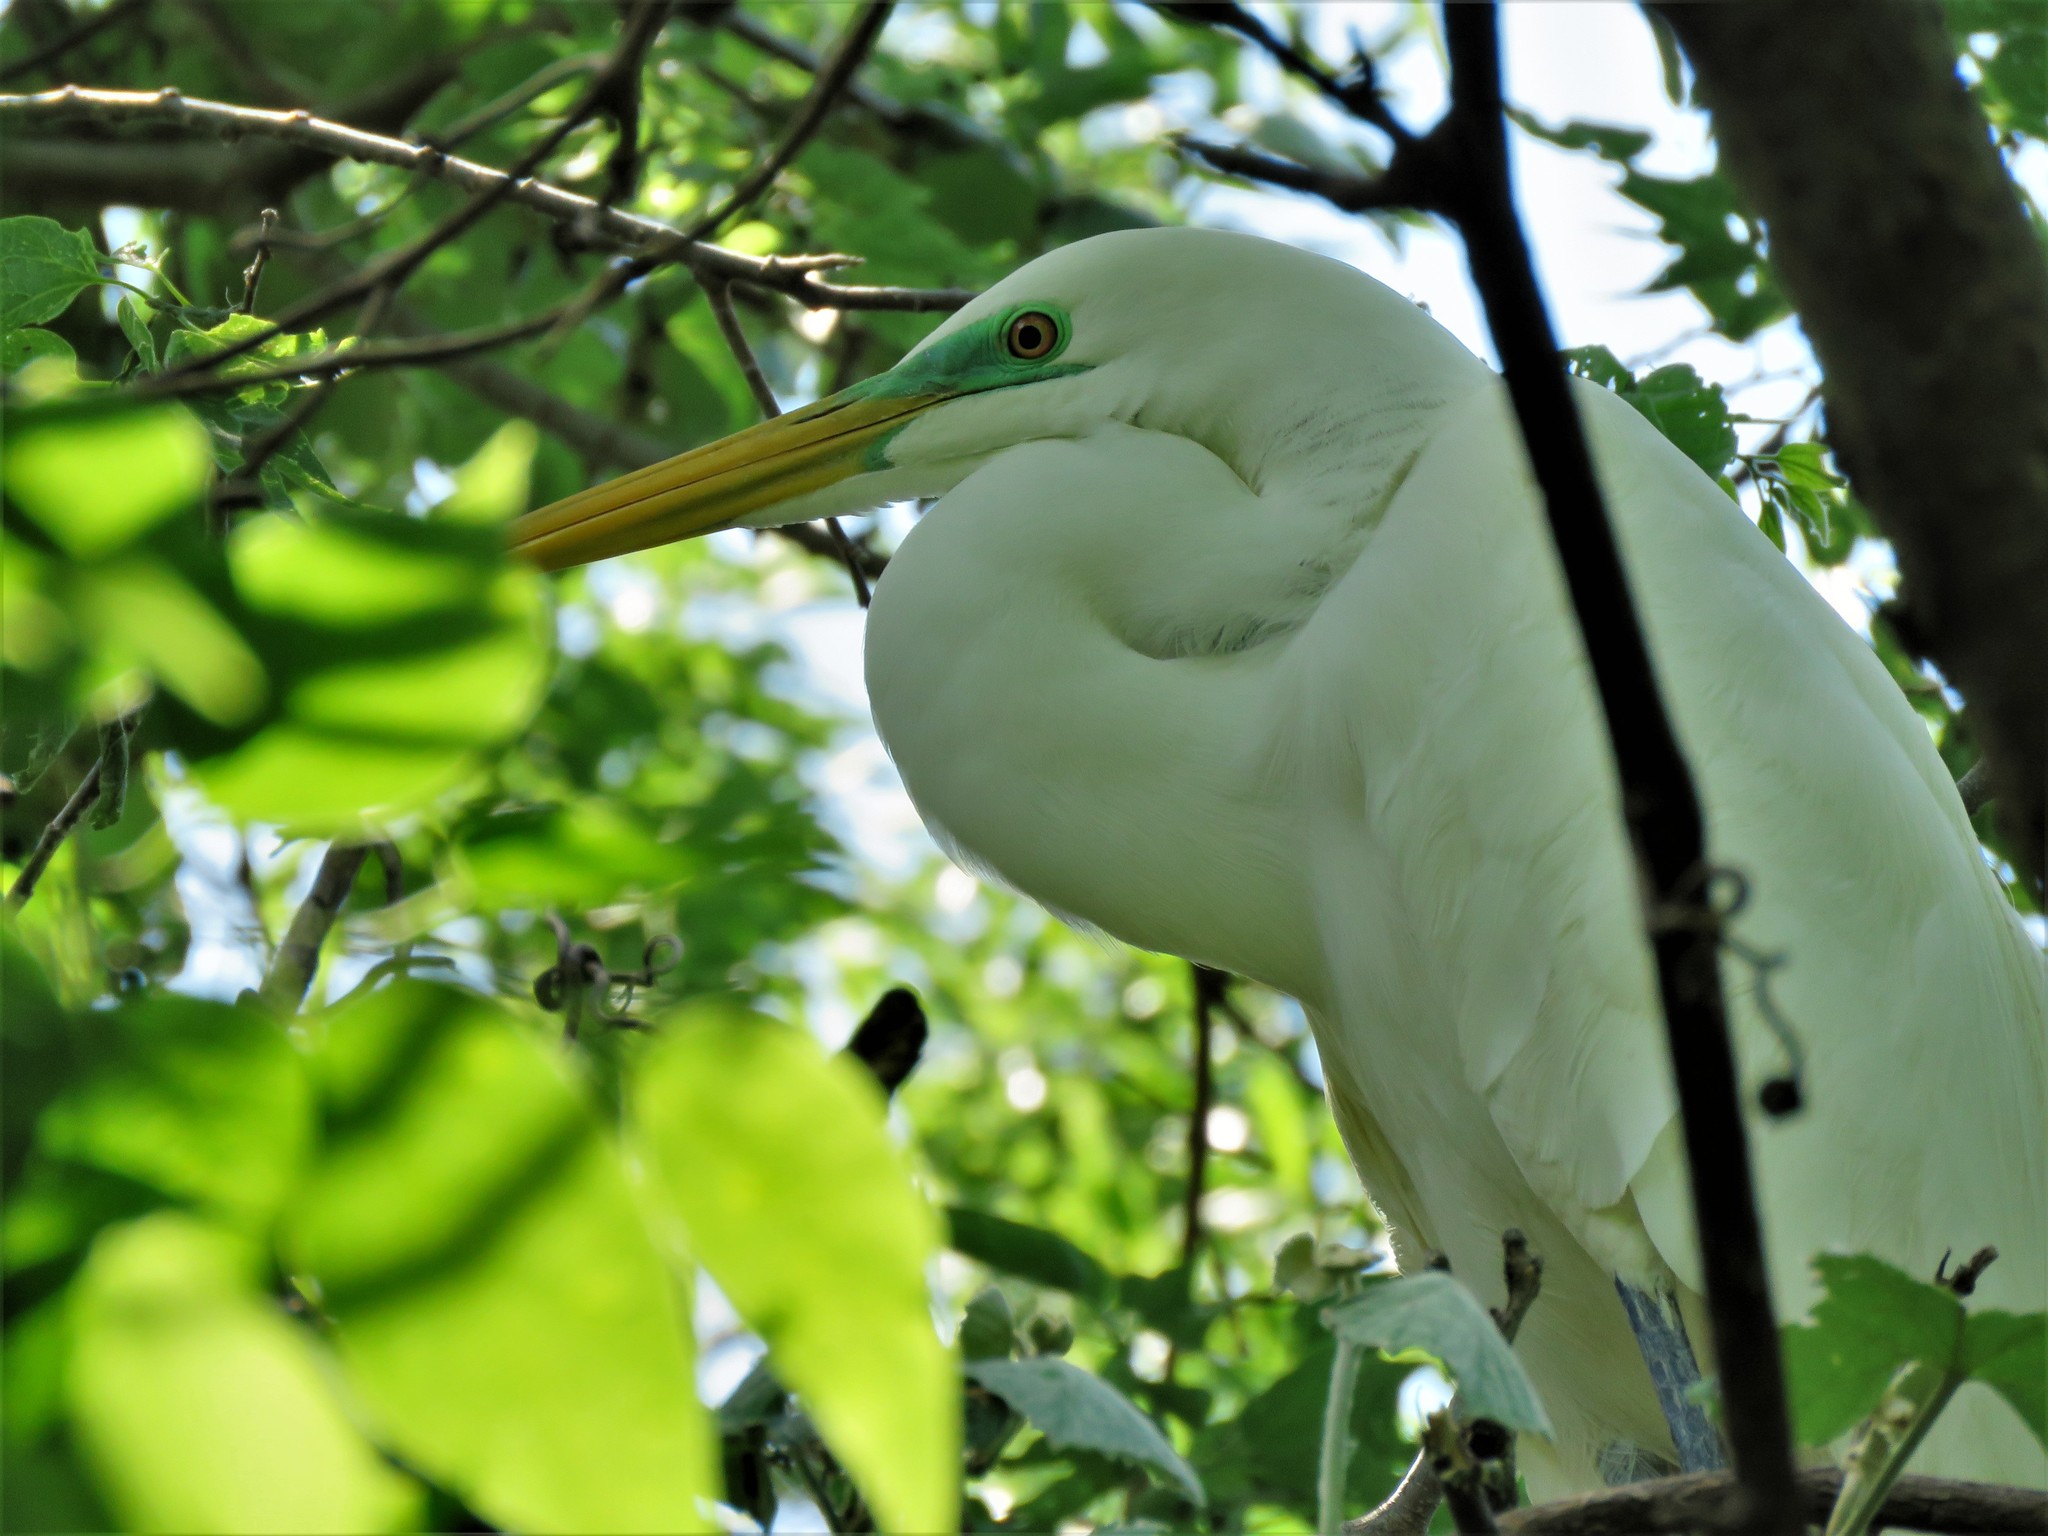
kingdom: Animalia
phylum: Chordata
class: Aves
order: Pelecaniformes
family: Ardeidae
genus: Ardea
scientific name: Ardea alba
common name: Great egret
